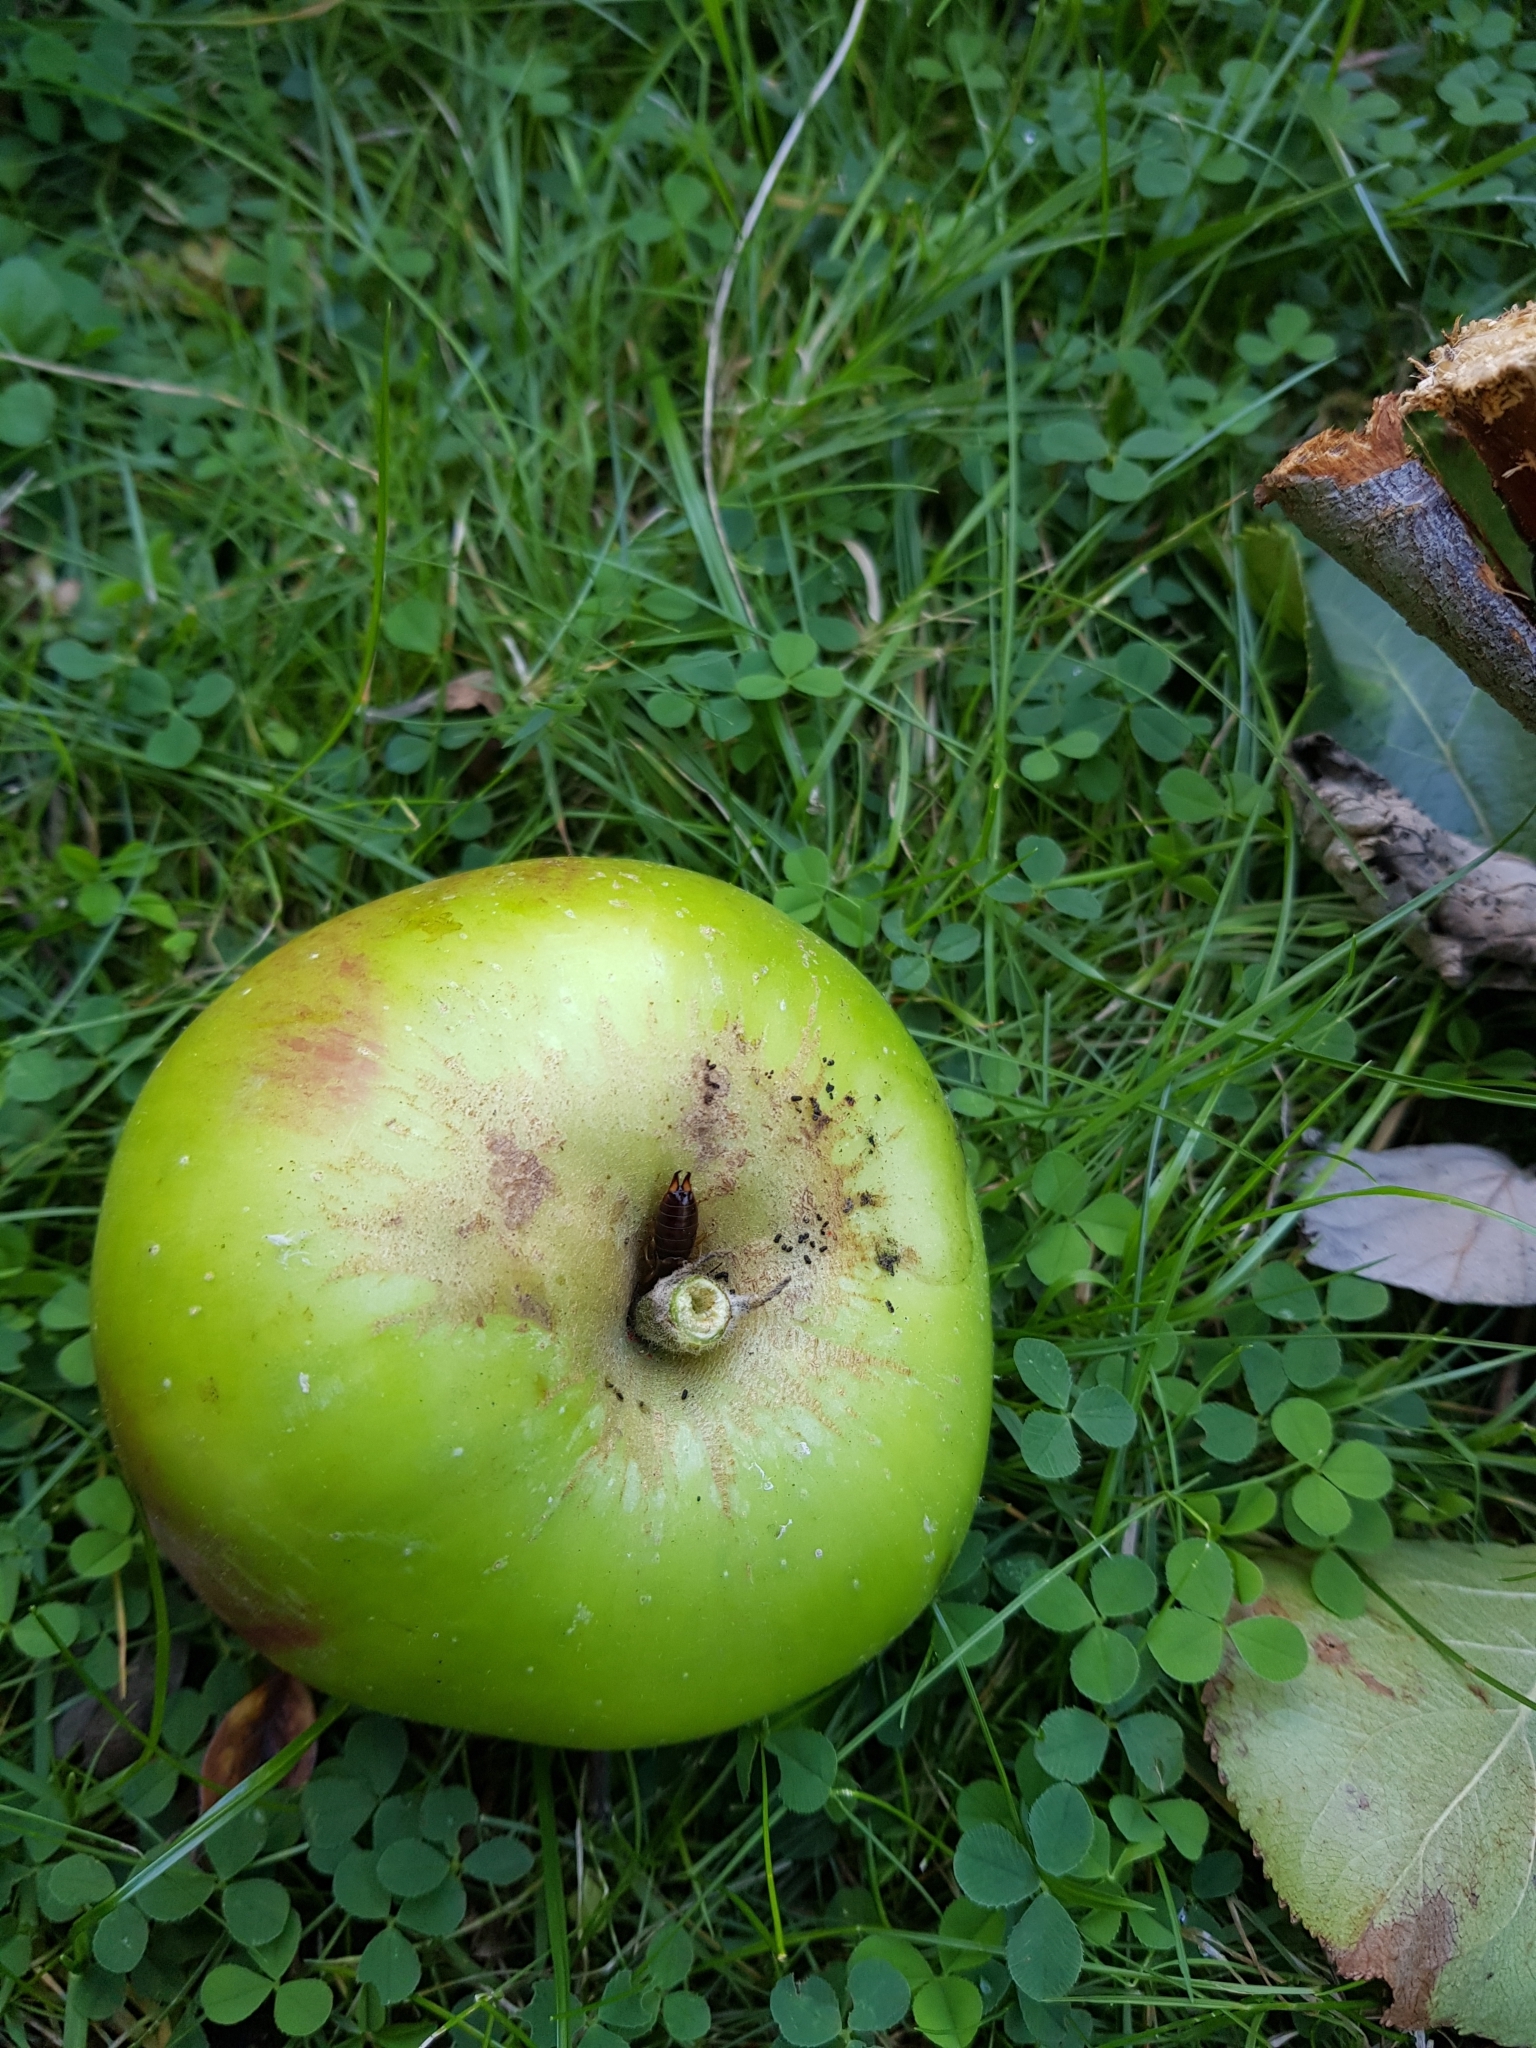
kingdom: Animalia
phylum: Arthropoda
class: Insecta
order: Dermaptera
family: Forficulidae
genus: Forficula
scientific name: Forficula
